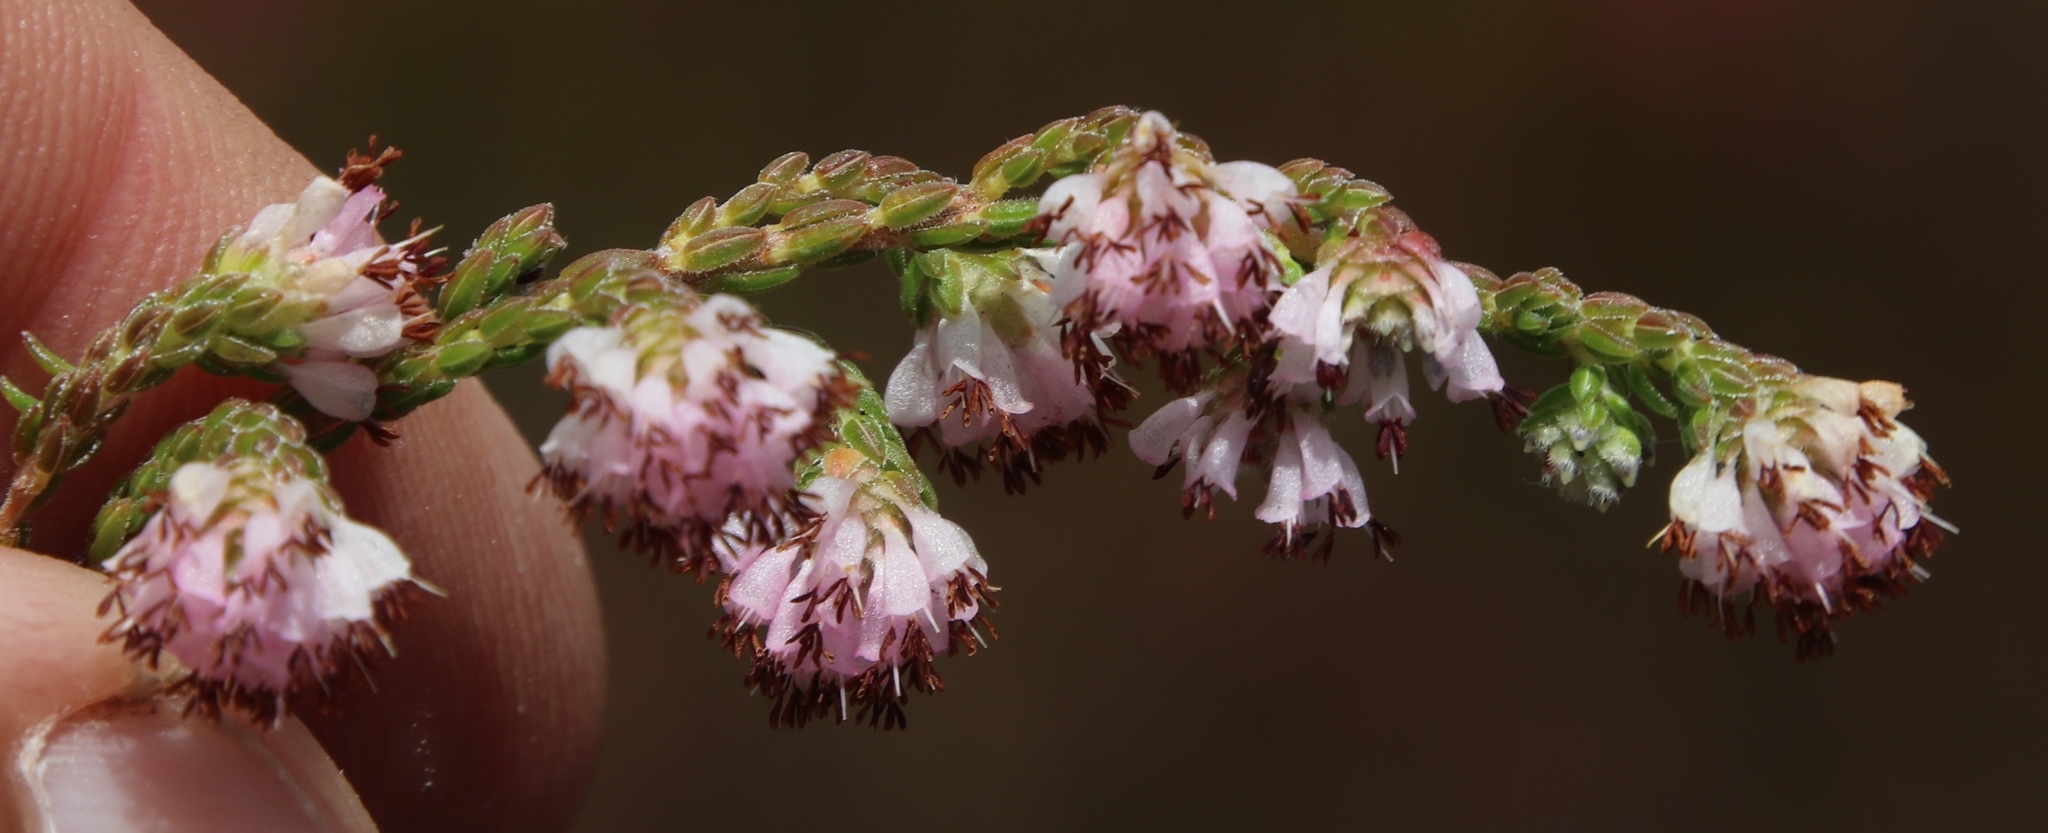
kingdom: Plantae
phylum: Tracheophyta
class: Magnoliopsida
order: Ericales
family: Ericaceae
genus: Erica
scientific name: Erica labialis
